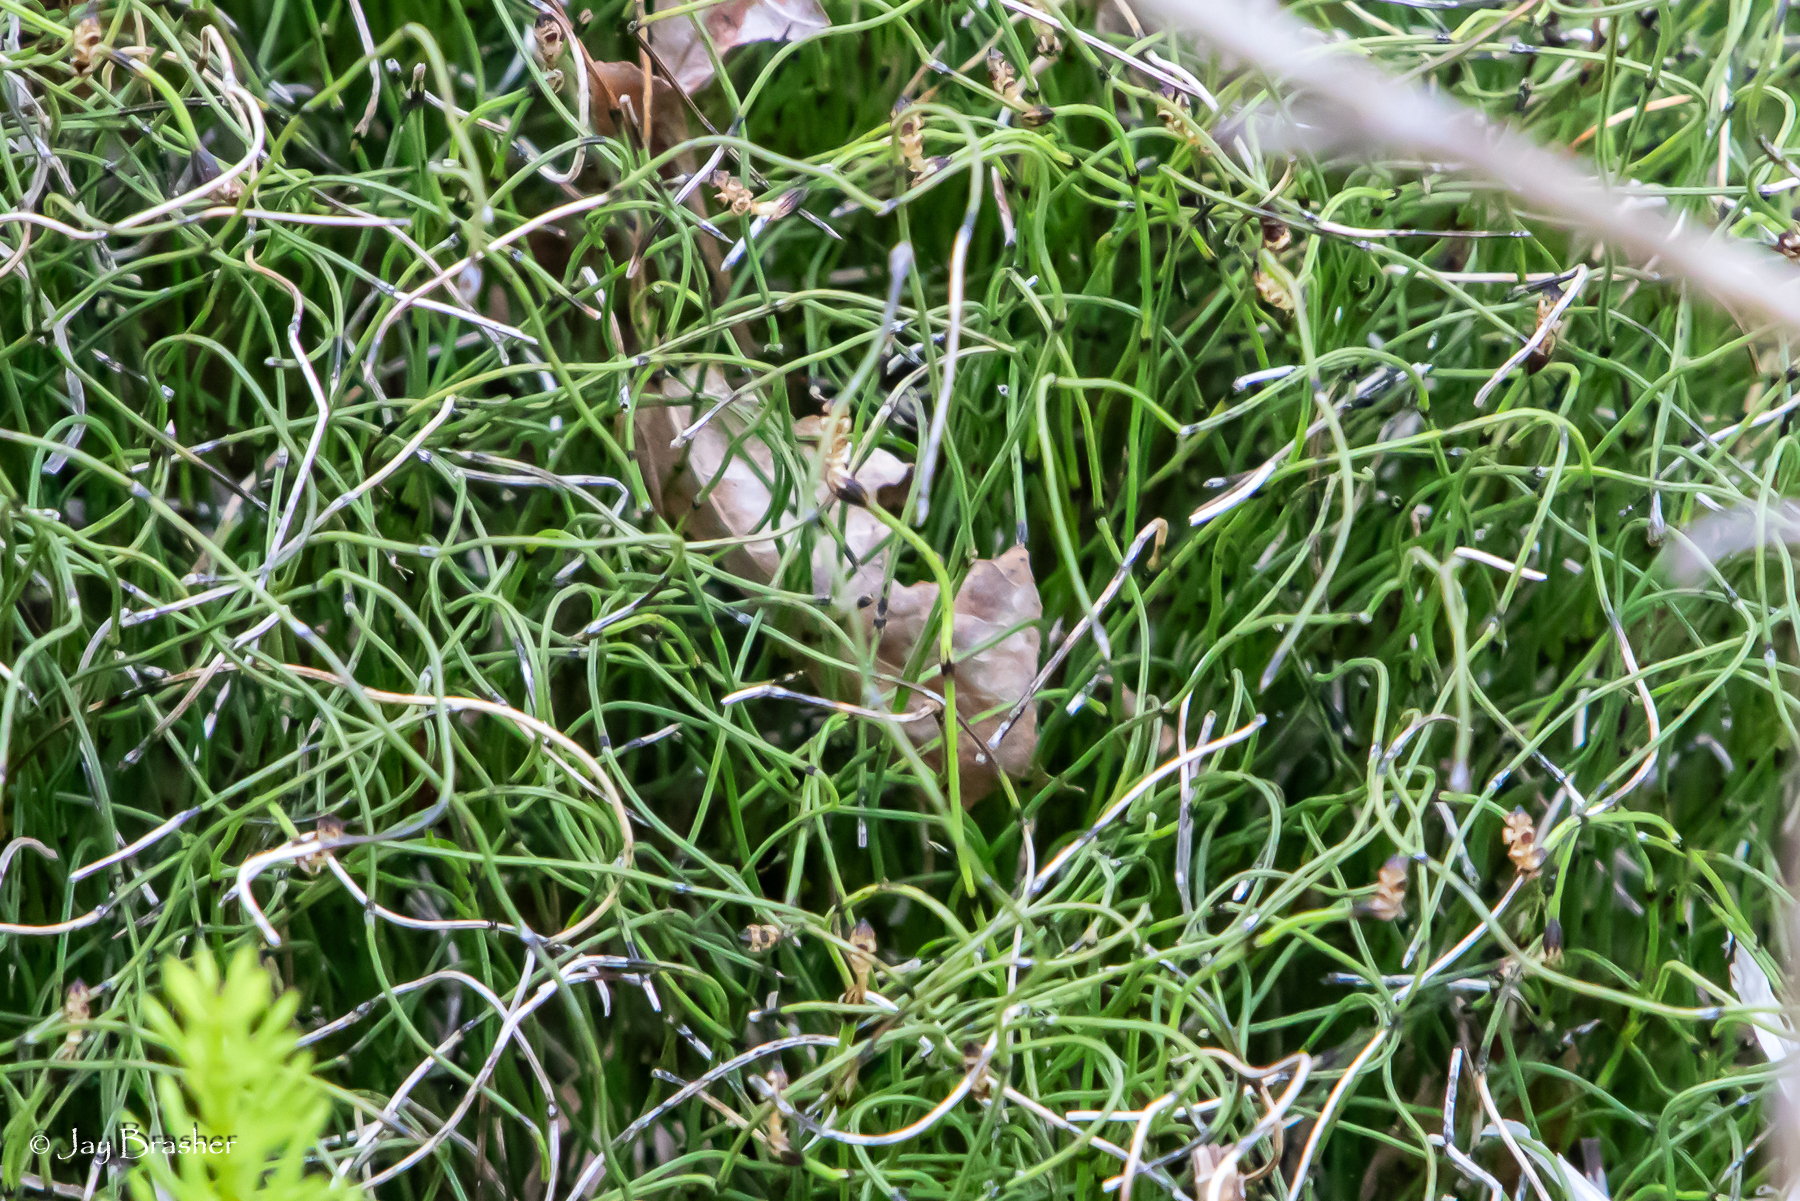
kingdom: Plantae
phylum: Tracheophyta
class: Polypodiopsida
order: Equisetales
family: Equisetaceae
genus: Equisetum
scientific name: Equisetum scirpoides
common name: Delicate horsetail
